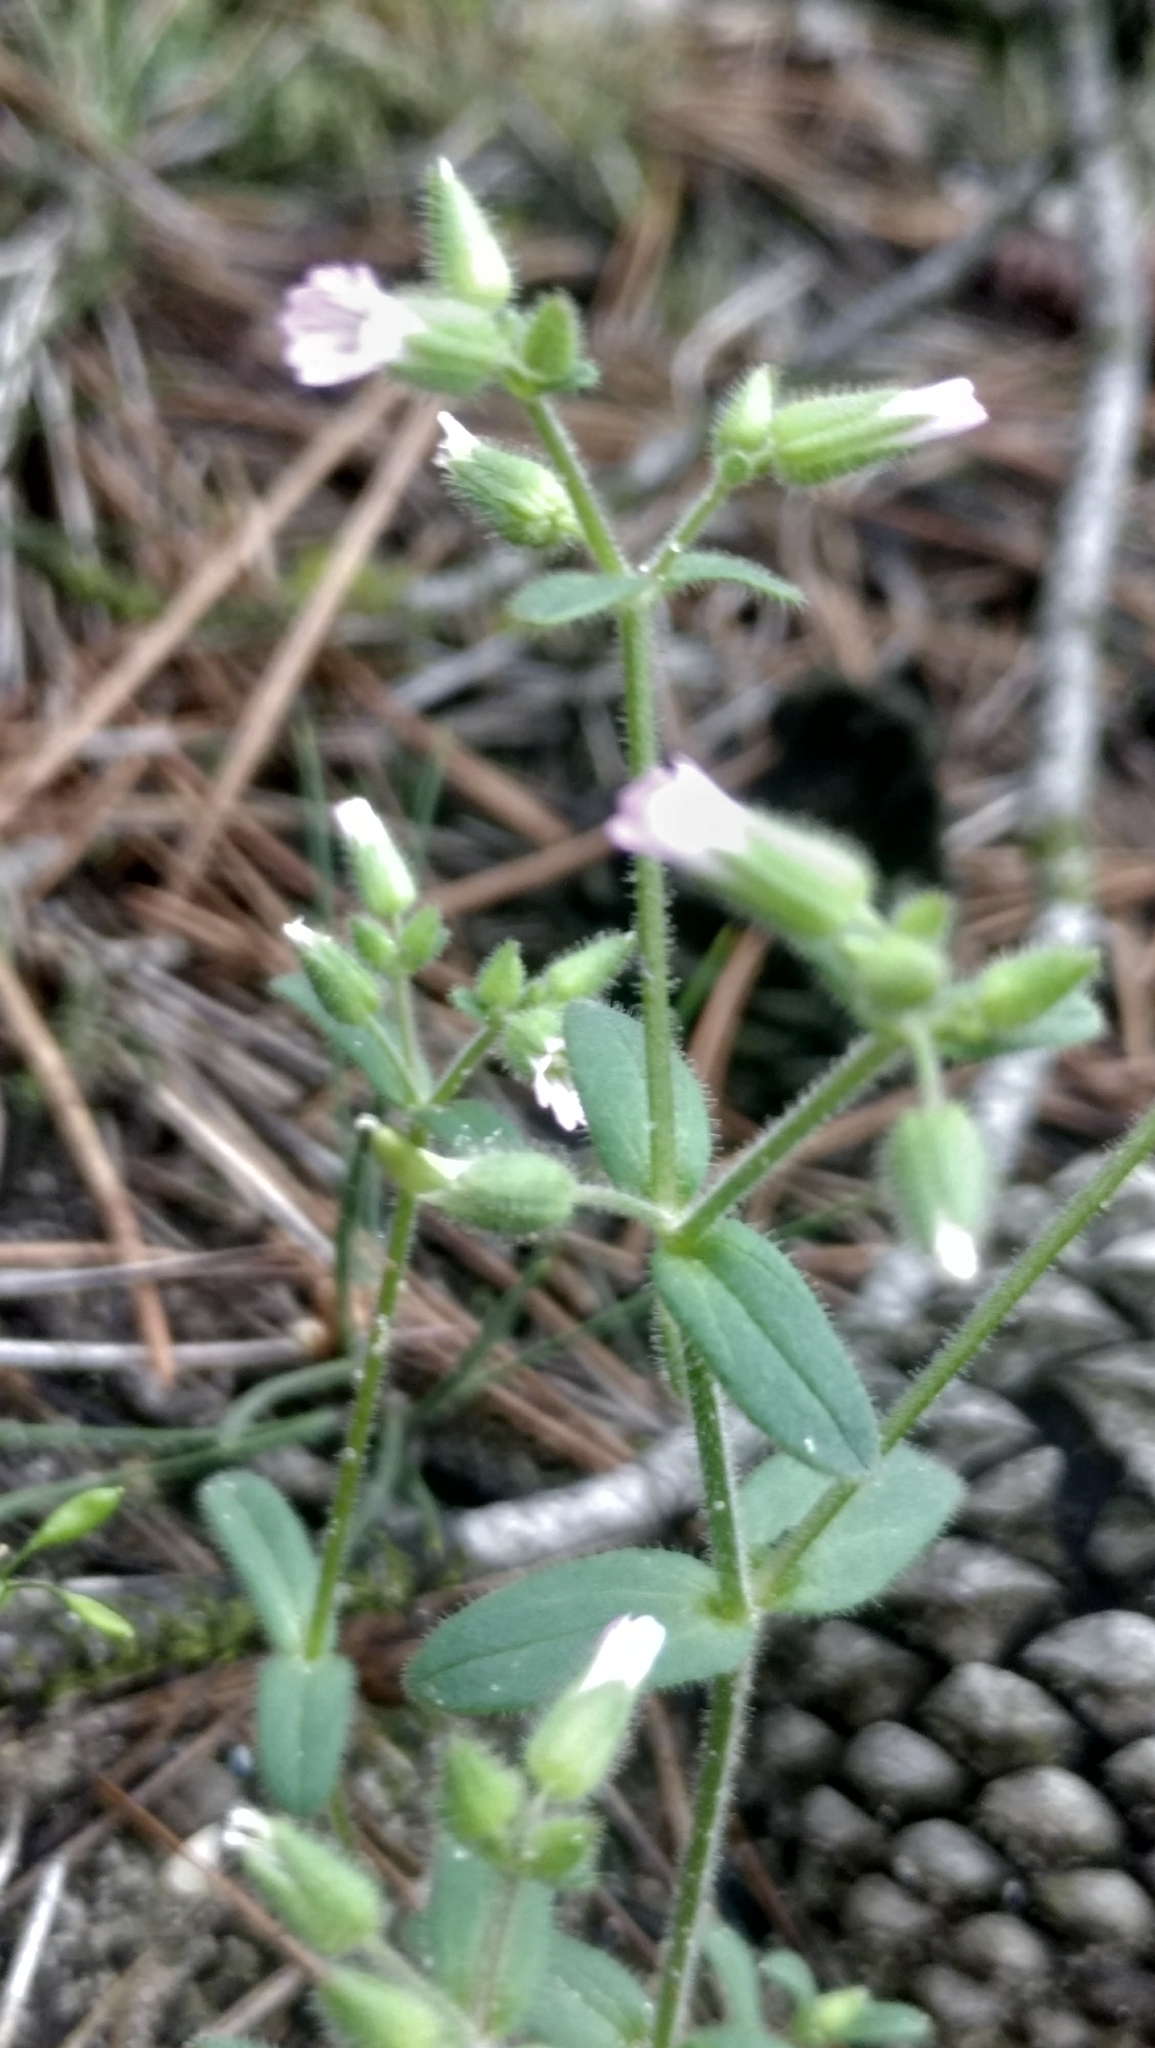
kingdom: Plantae
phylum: Tracheophyta
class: Magnoliopsida
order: Caryophyllales
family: Caryophyllaceae
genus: Cerastium
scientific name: Cerastium ramosissimum
